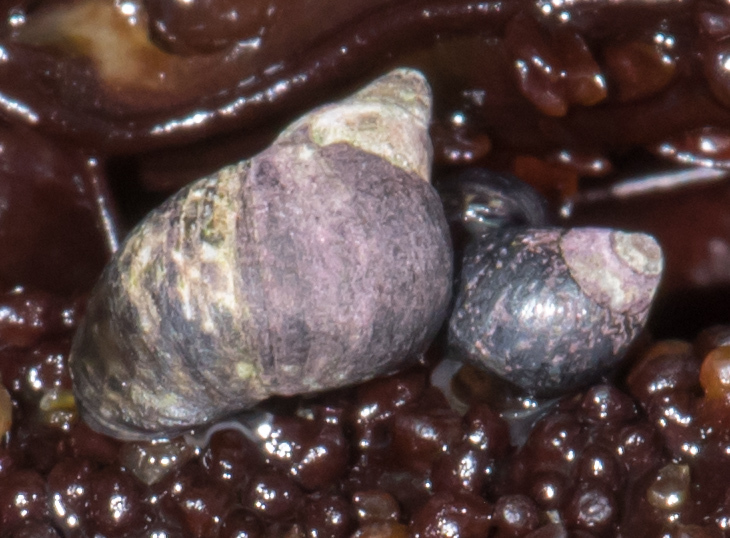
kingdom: Animalia
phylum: Mollusca
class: Gastropoda
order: Littorinimorpha
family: Littorinidae
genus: Littorina
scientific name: Littorina scutulata
